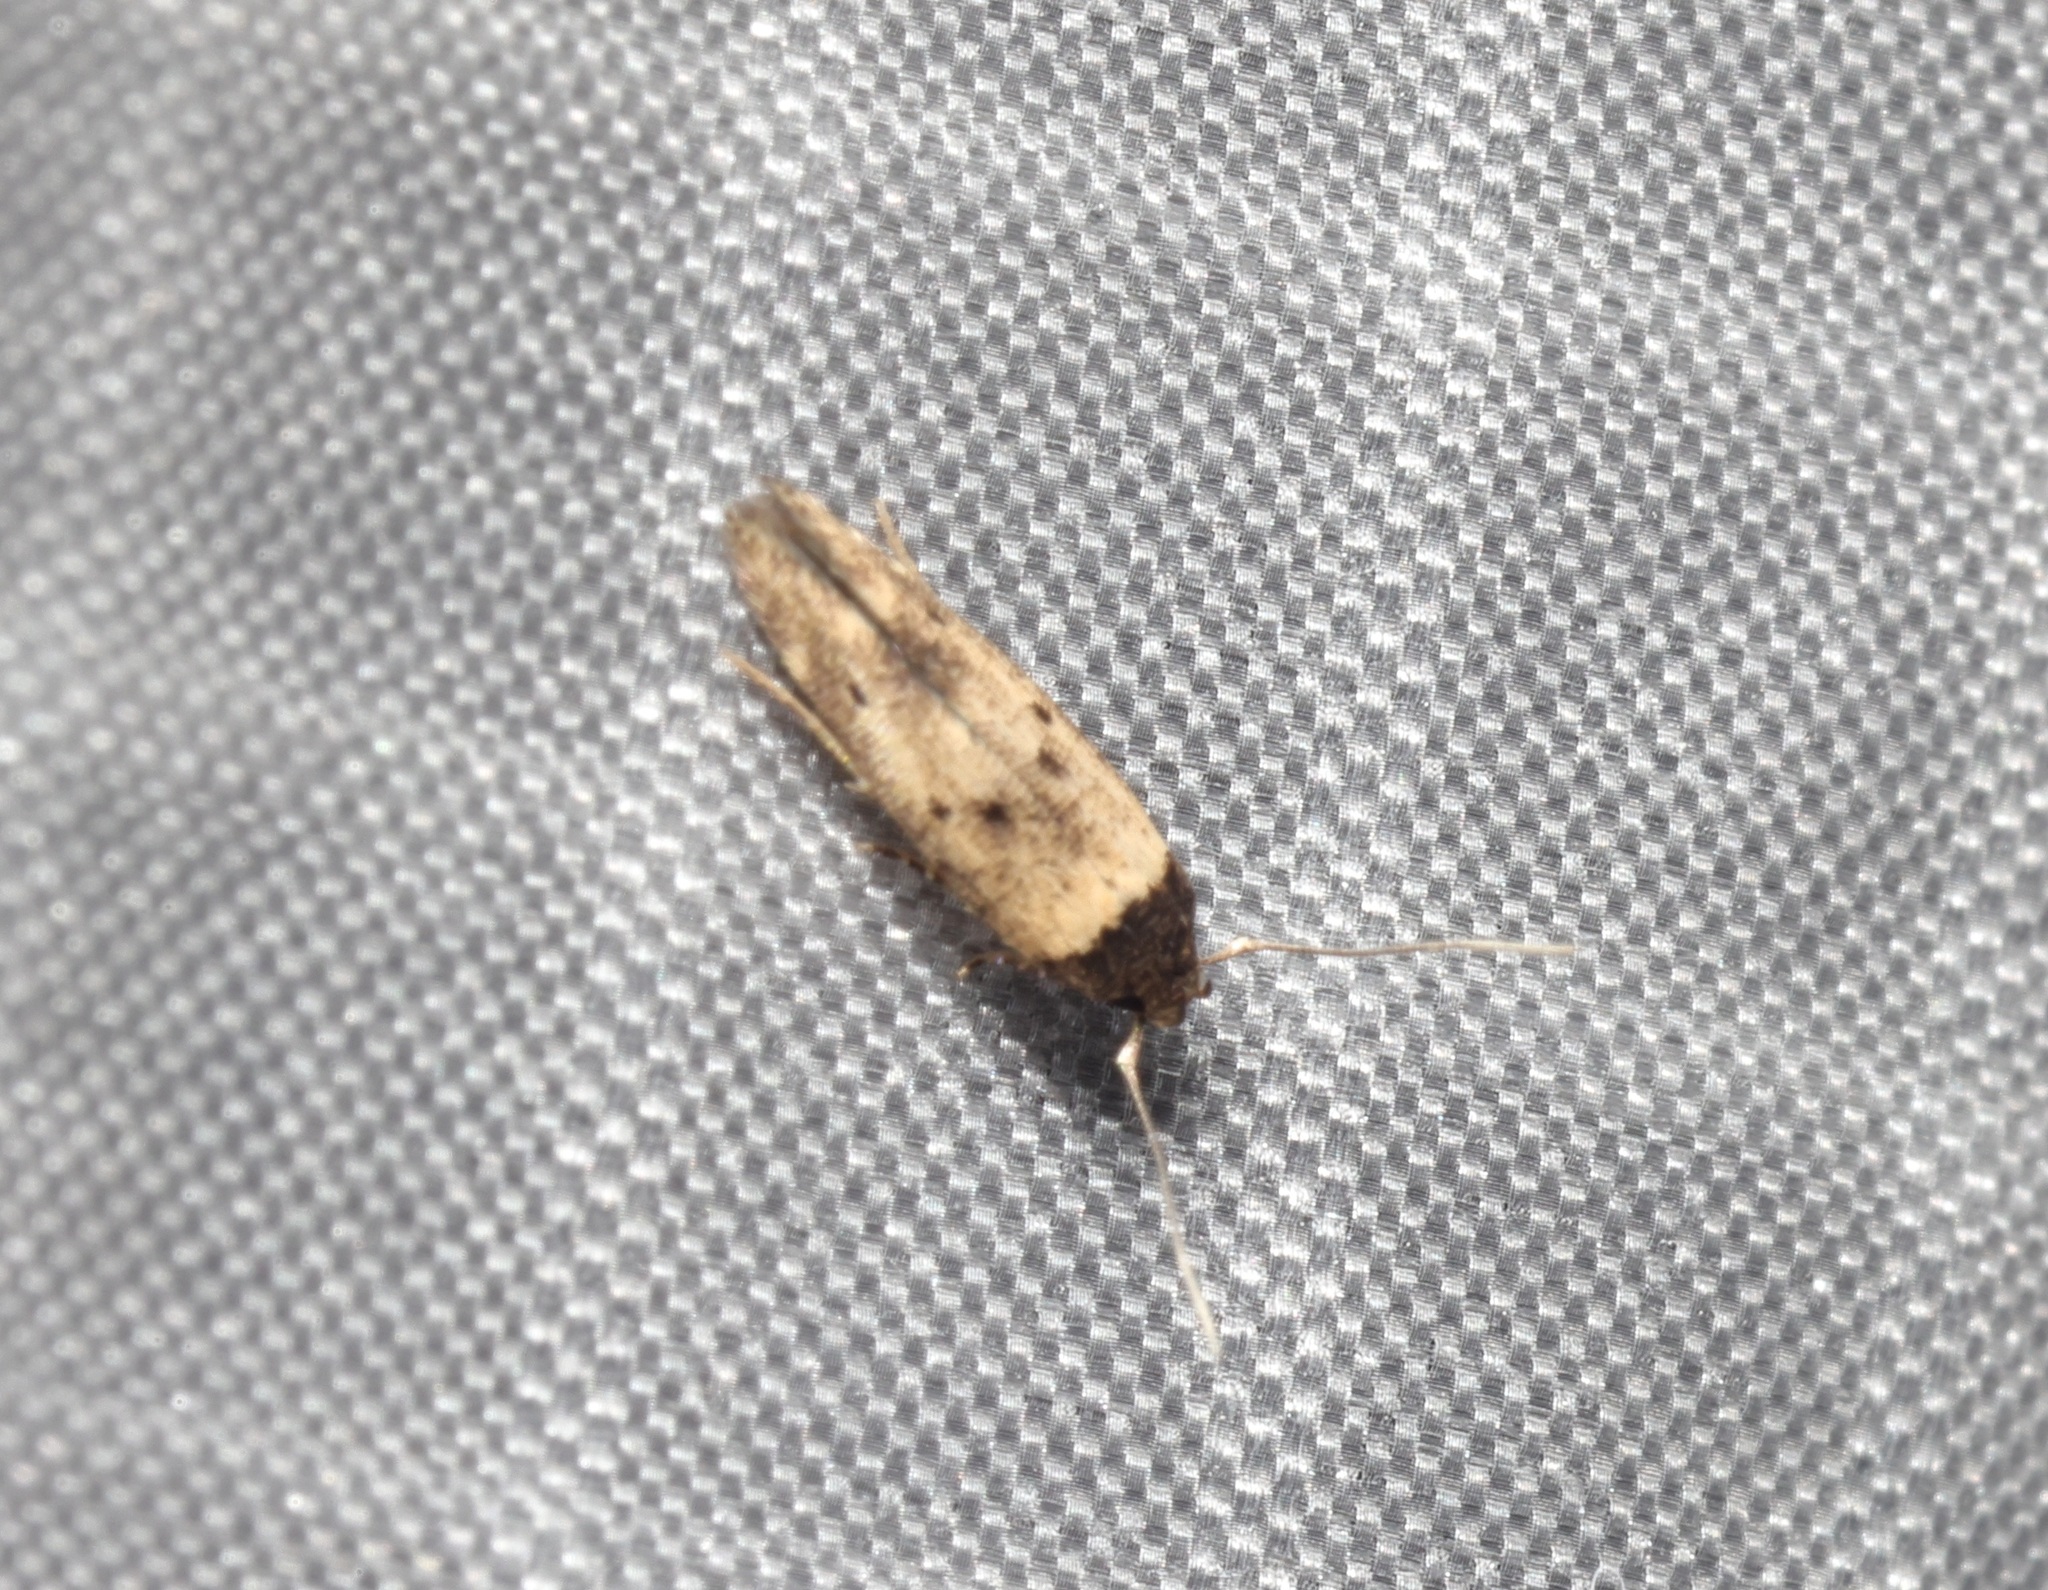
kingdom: Animalia
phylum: Arthropoda
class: Insecta
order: Lepidoptera
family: Cosmopterigidae
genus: Gisilia
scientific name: Gisilia thoracista
